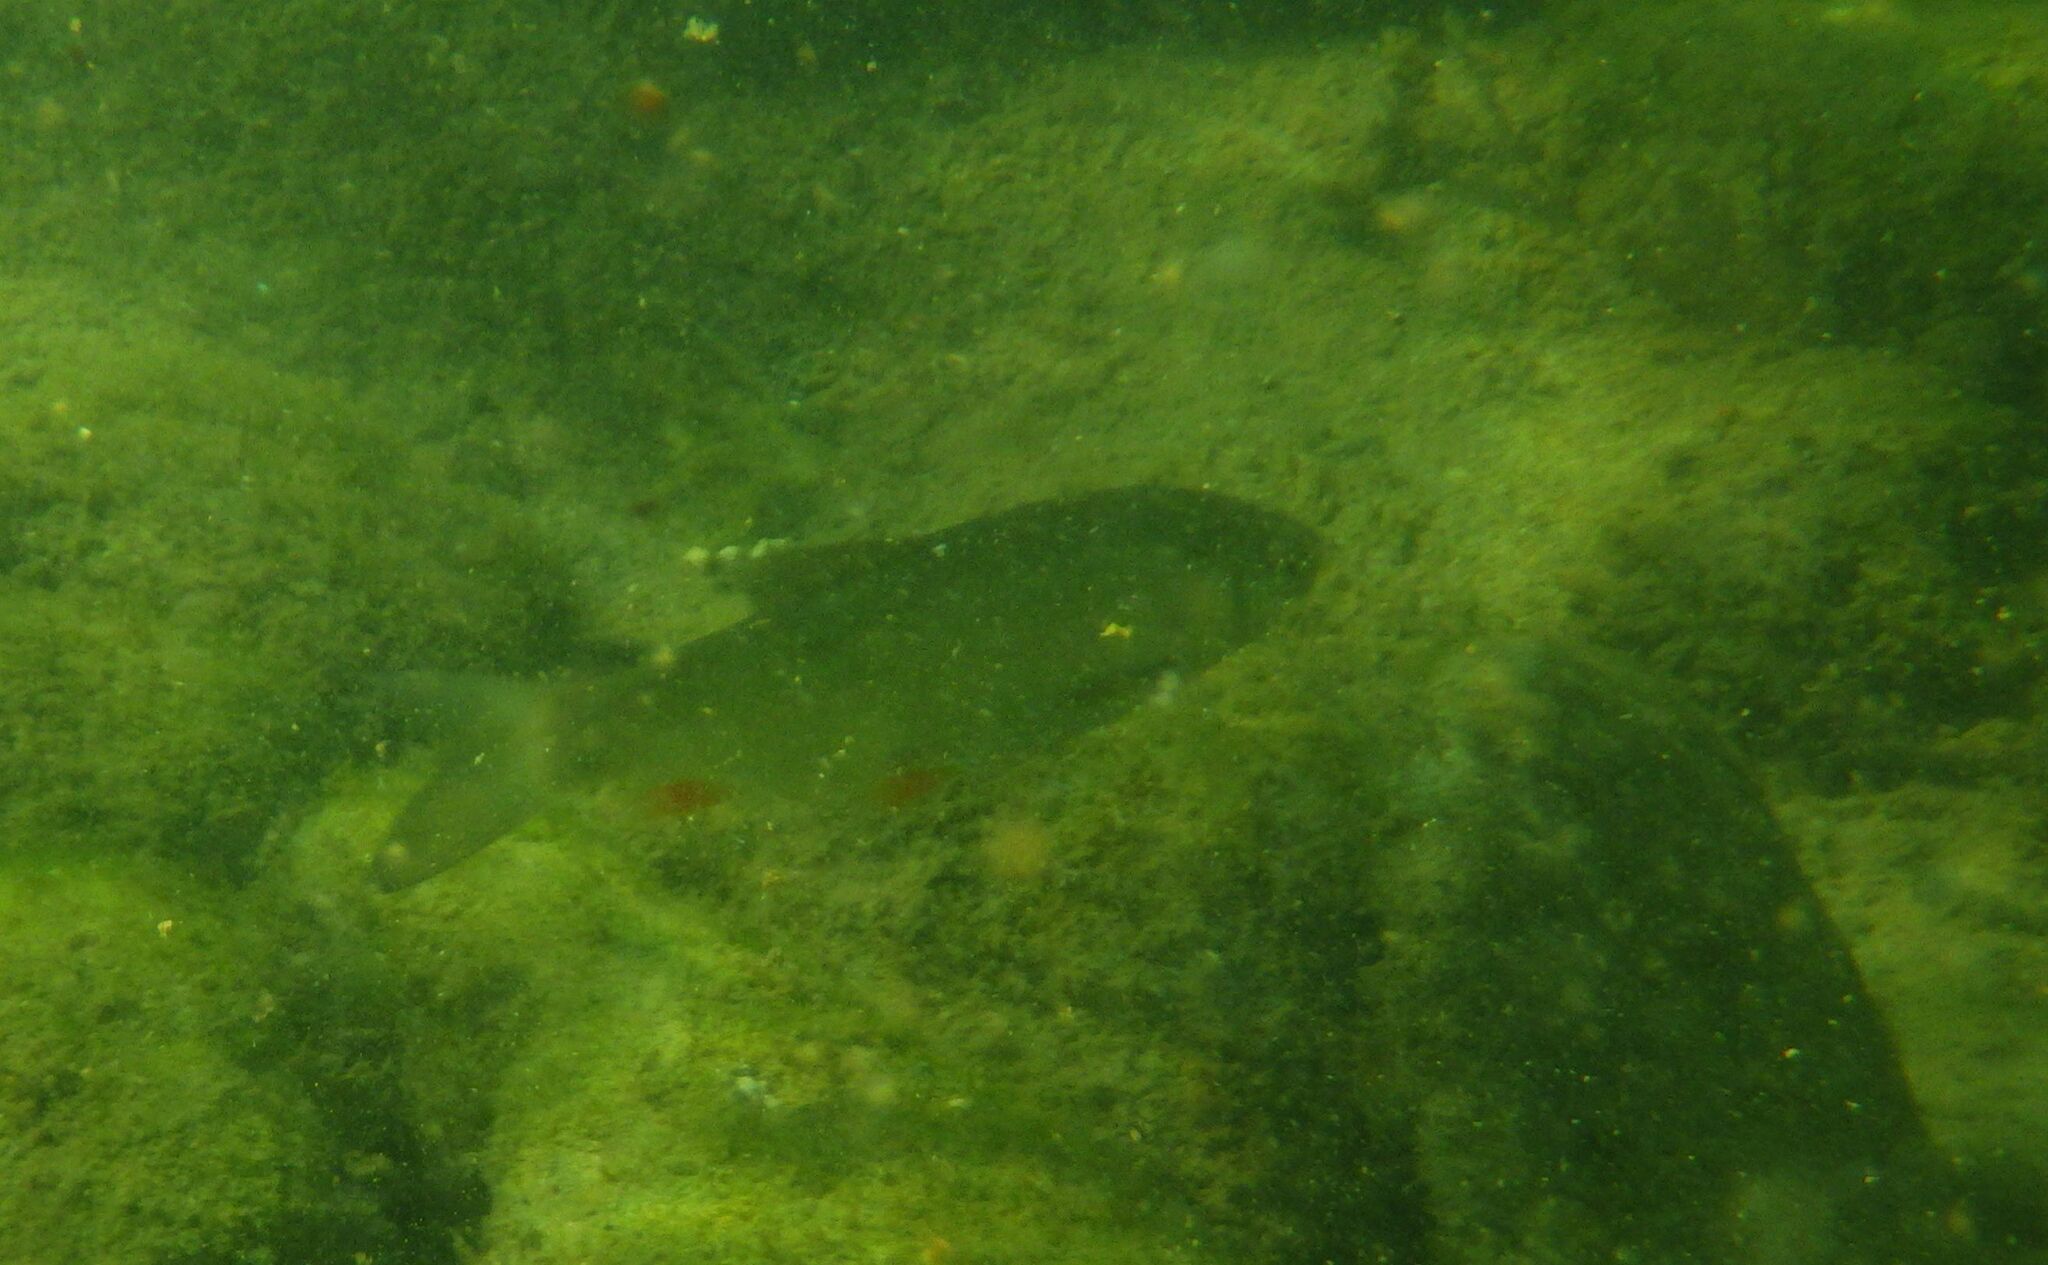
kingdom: Animalia
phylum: Chordata
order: Cypriniformes
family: Cyprinidae
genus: Squalius
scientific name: Squalius cephalus
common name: Chub
